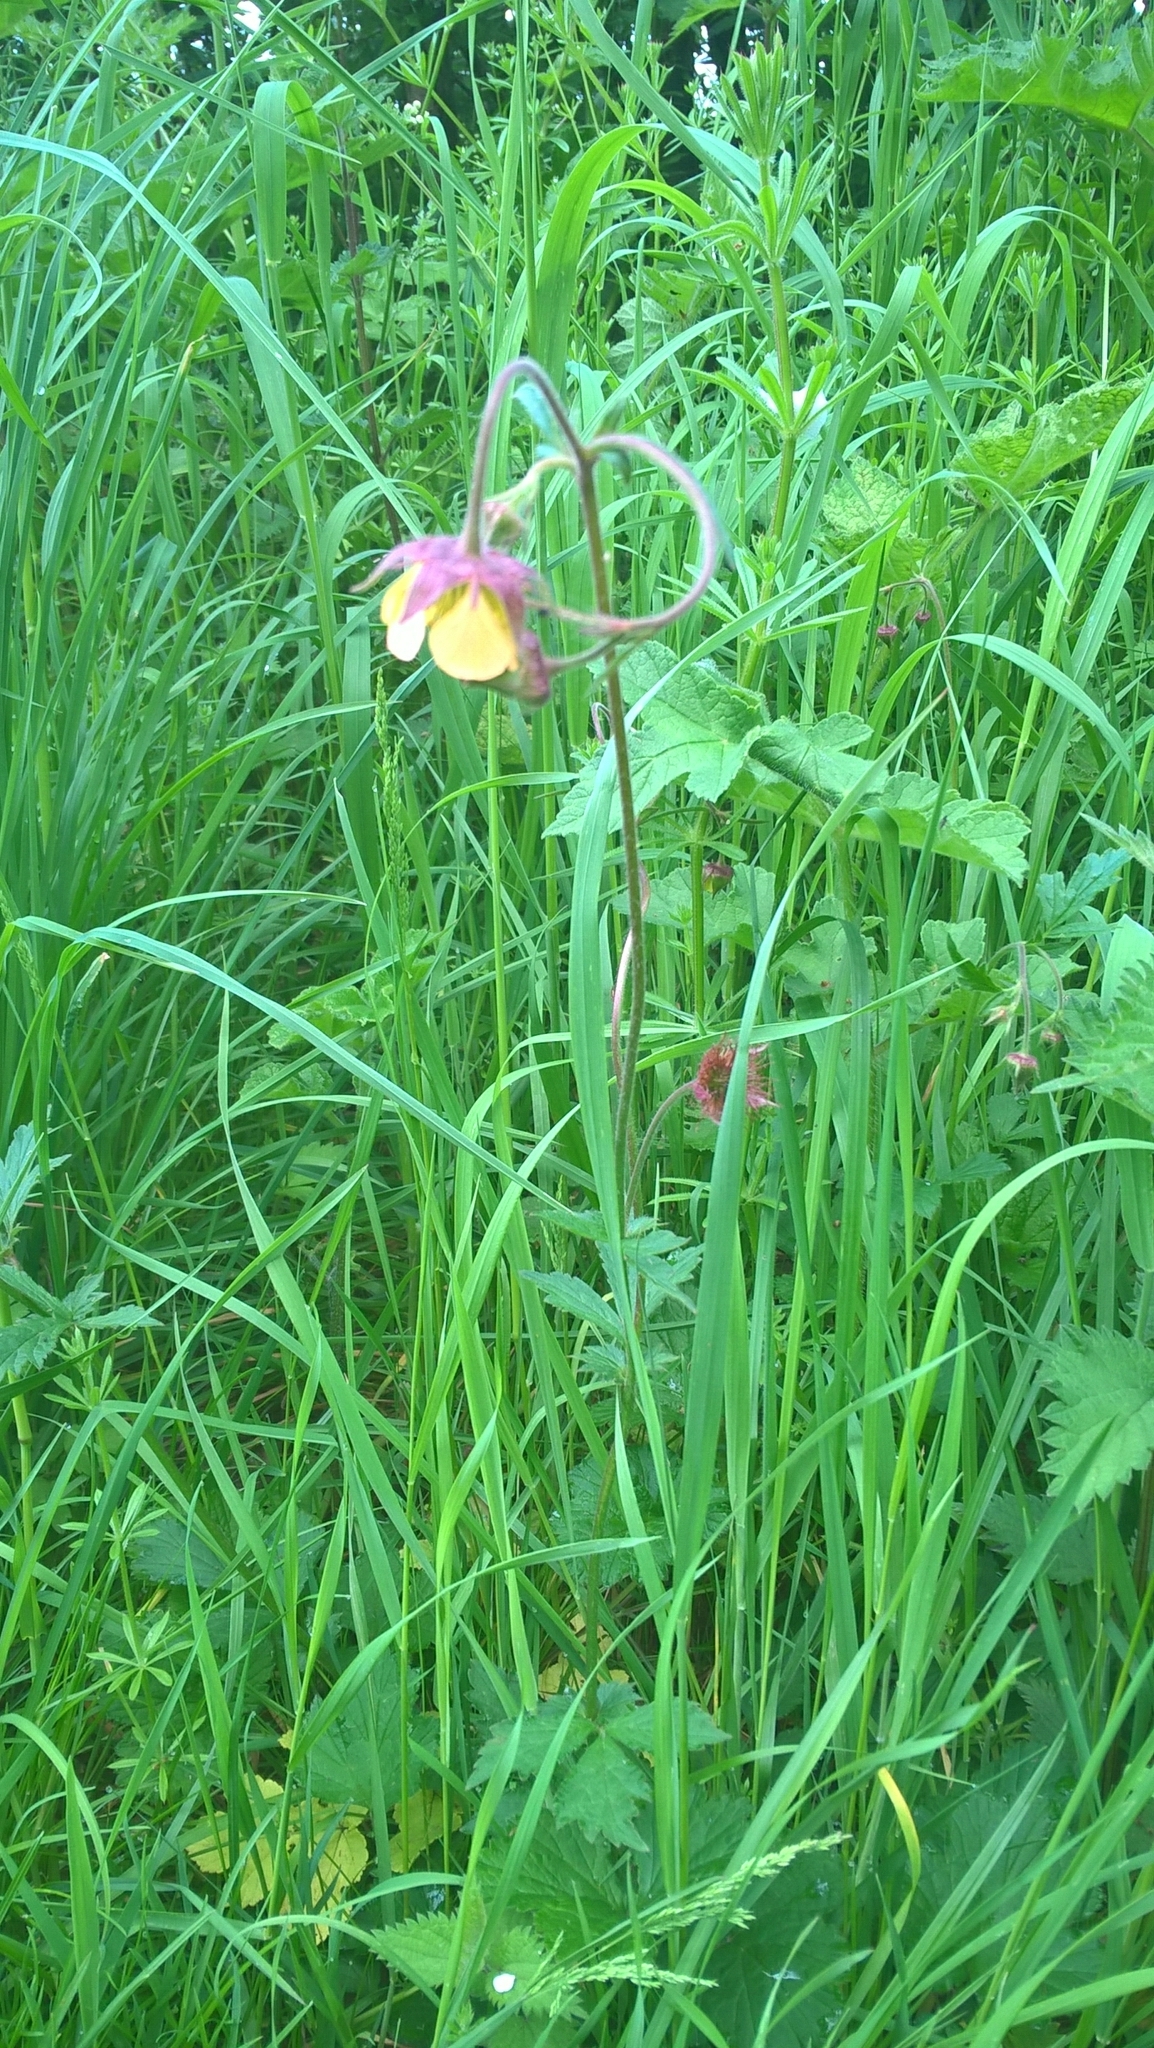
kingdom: Plantae
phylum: Tracheophyta
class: Magnoliopsida
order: Rosales
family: Rosaceae
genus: Geum
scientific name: Geum rivale
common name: Water avens
